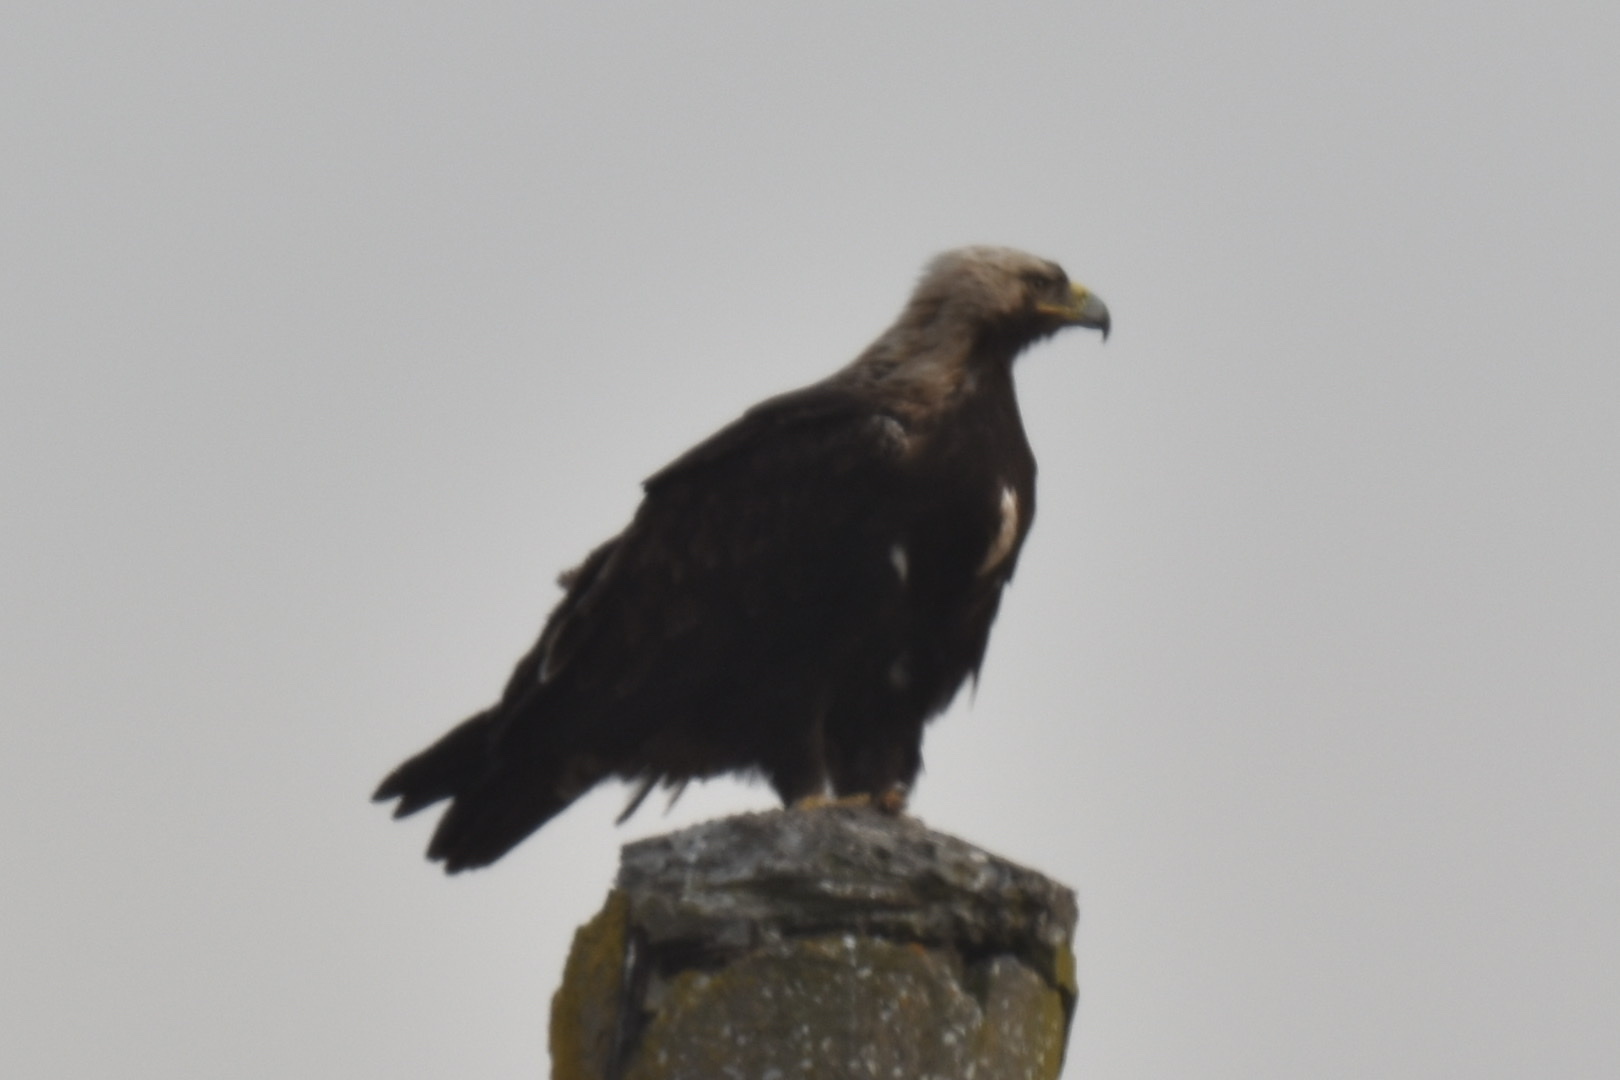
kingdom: Animalia
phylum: Chordata
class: Aves
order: Accipitriformes
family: Accipitridae
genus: Aquila
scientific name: Aquila heliaca
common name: Eastern imperial eagle
